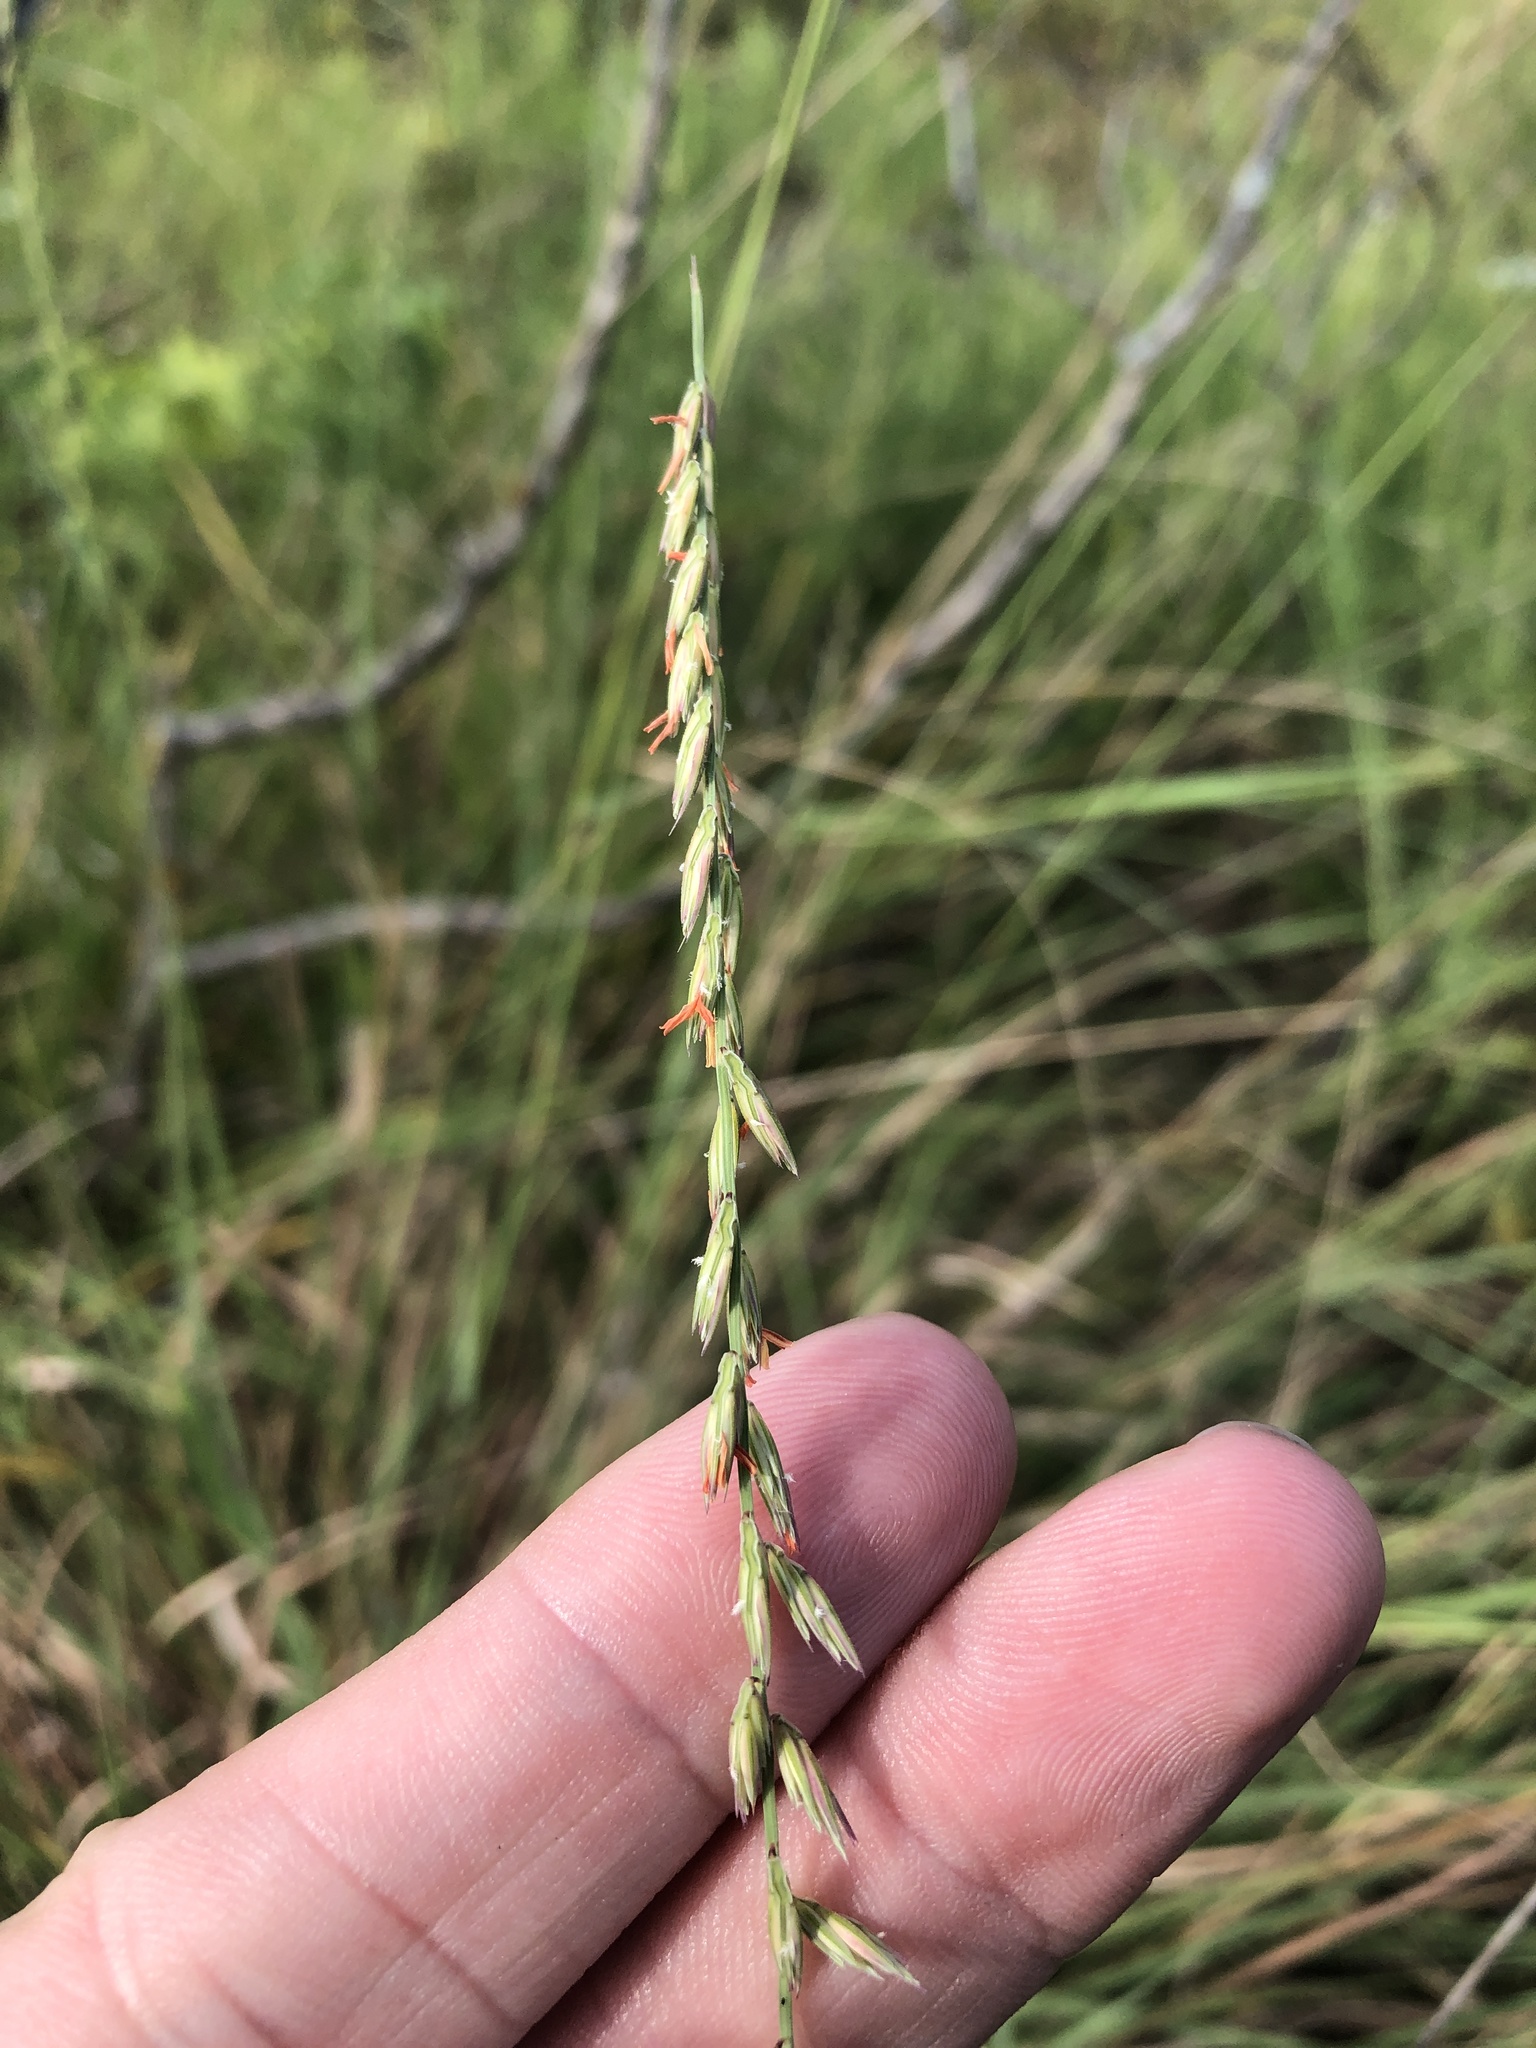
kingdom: Plantae
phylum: Tracheophyta
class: Liliopsida
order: Poales
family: Poaceae
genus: Bouteloua
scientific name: Bouteloua curtipendula
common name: Side-oats grama
